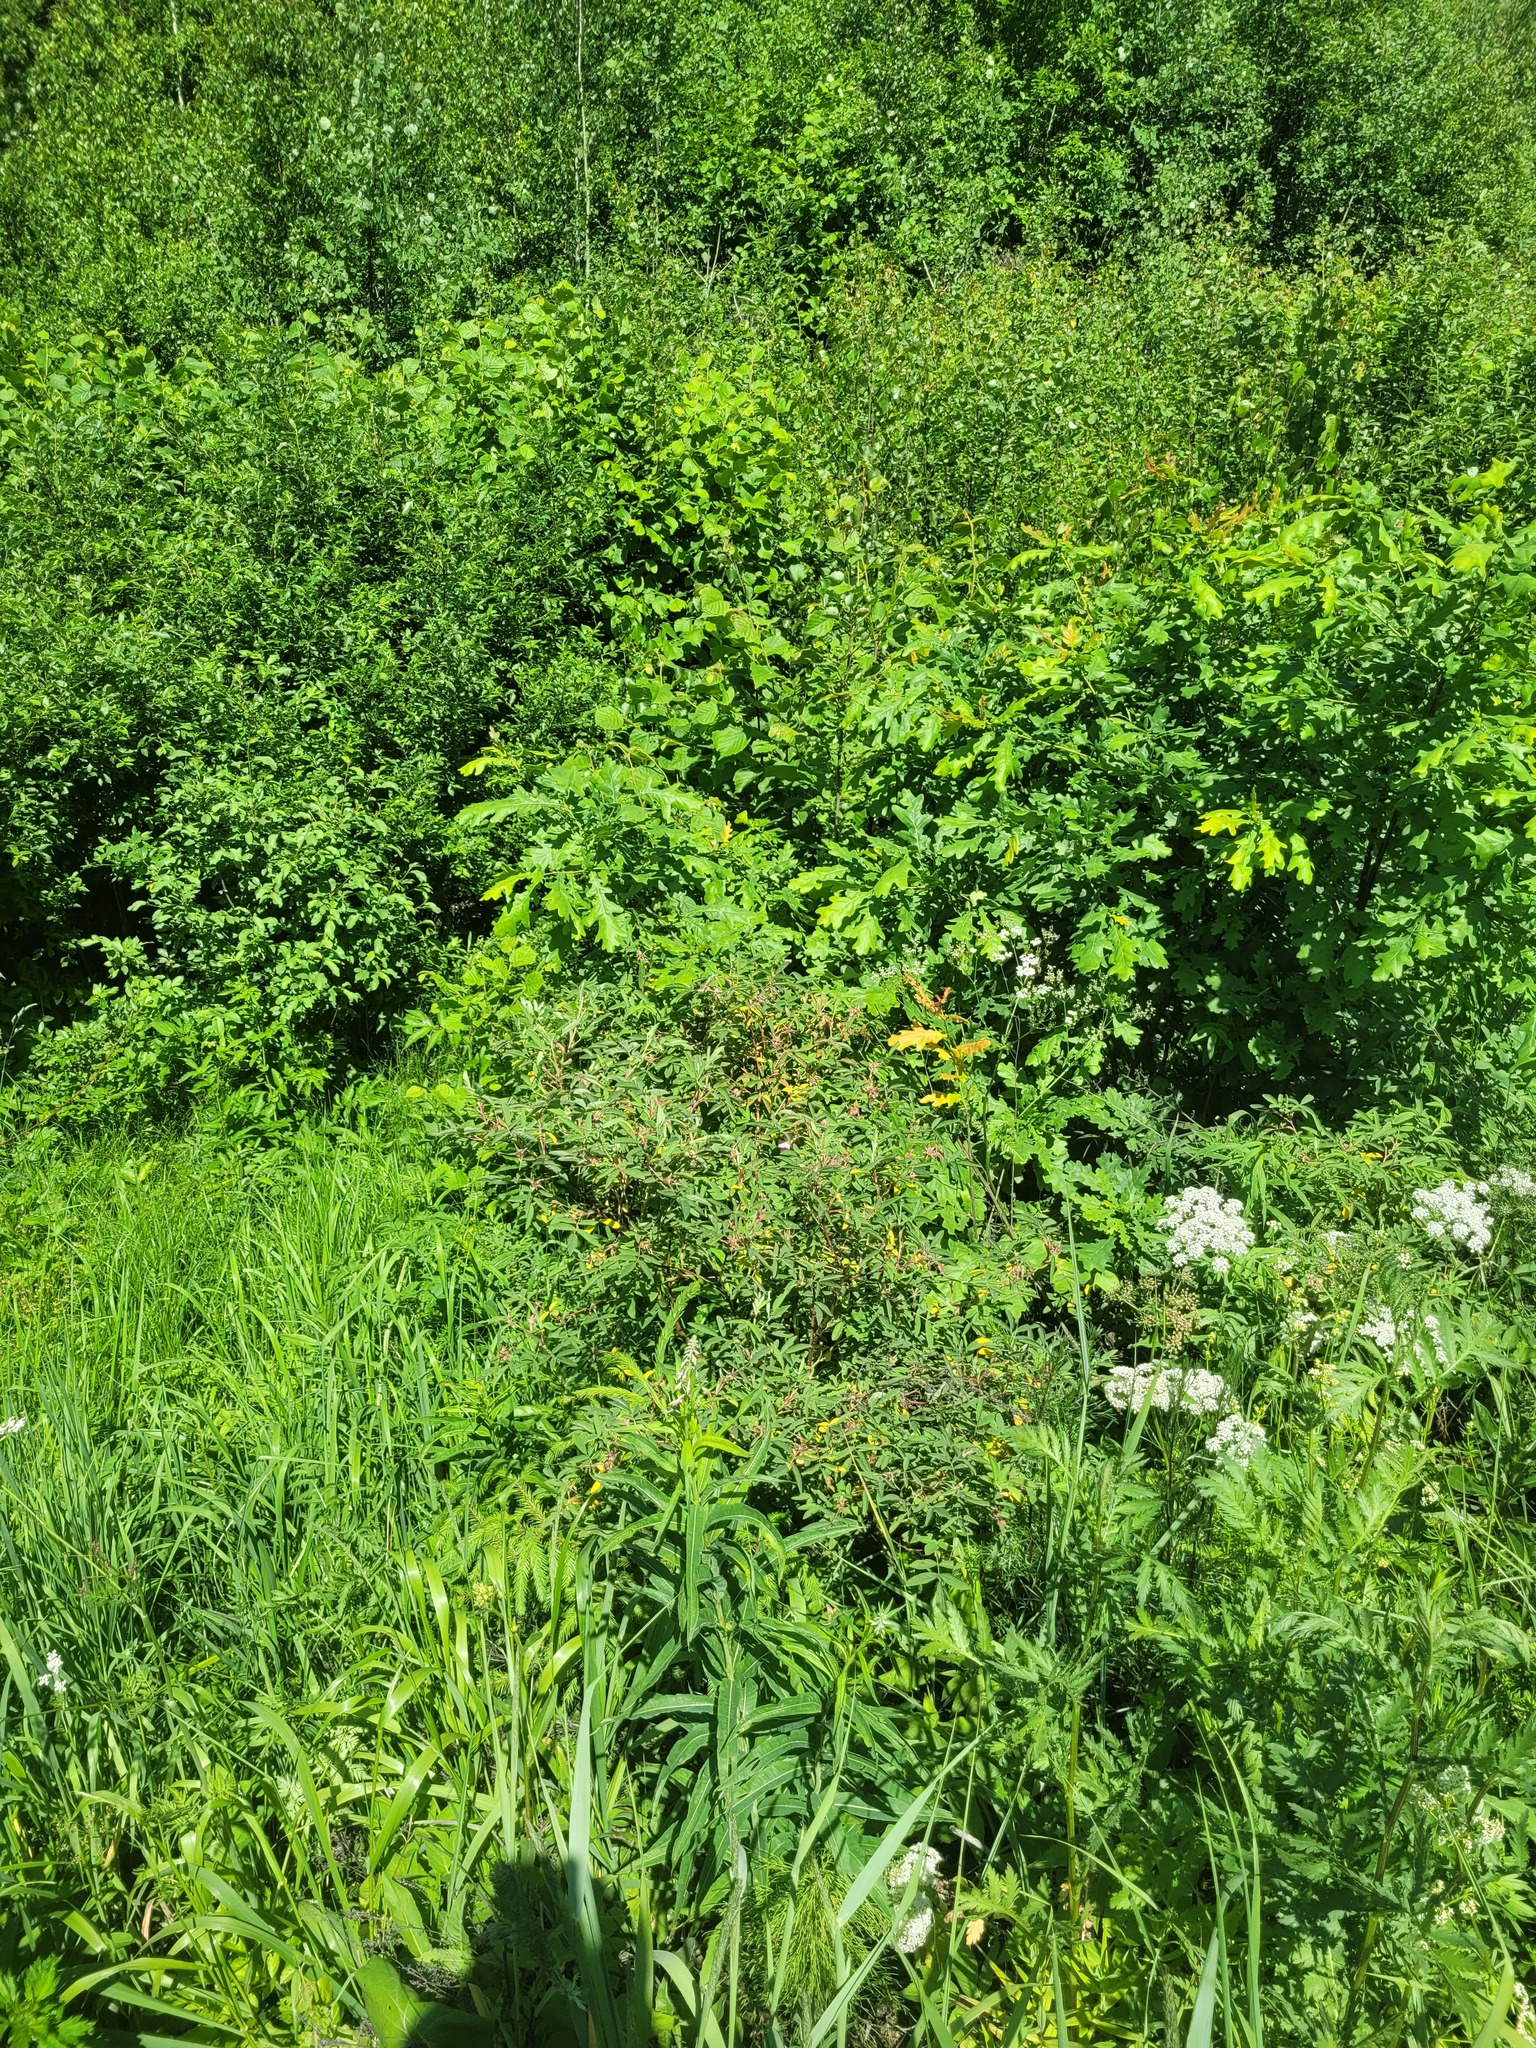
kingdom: Plantae
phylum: Tracheophyta
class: Magnoliopsida
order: Rosales
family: Rosaceae
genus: Rosa
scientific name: Rosa majalis
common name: Cinnamon rose
